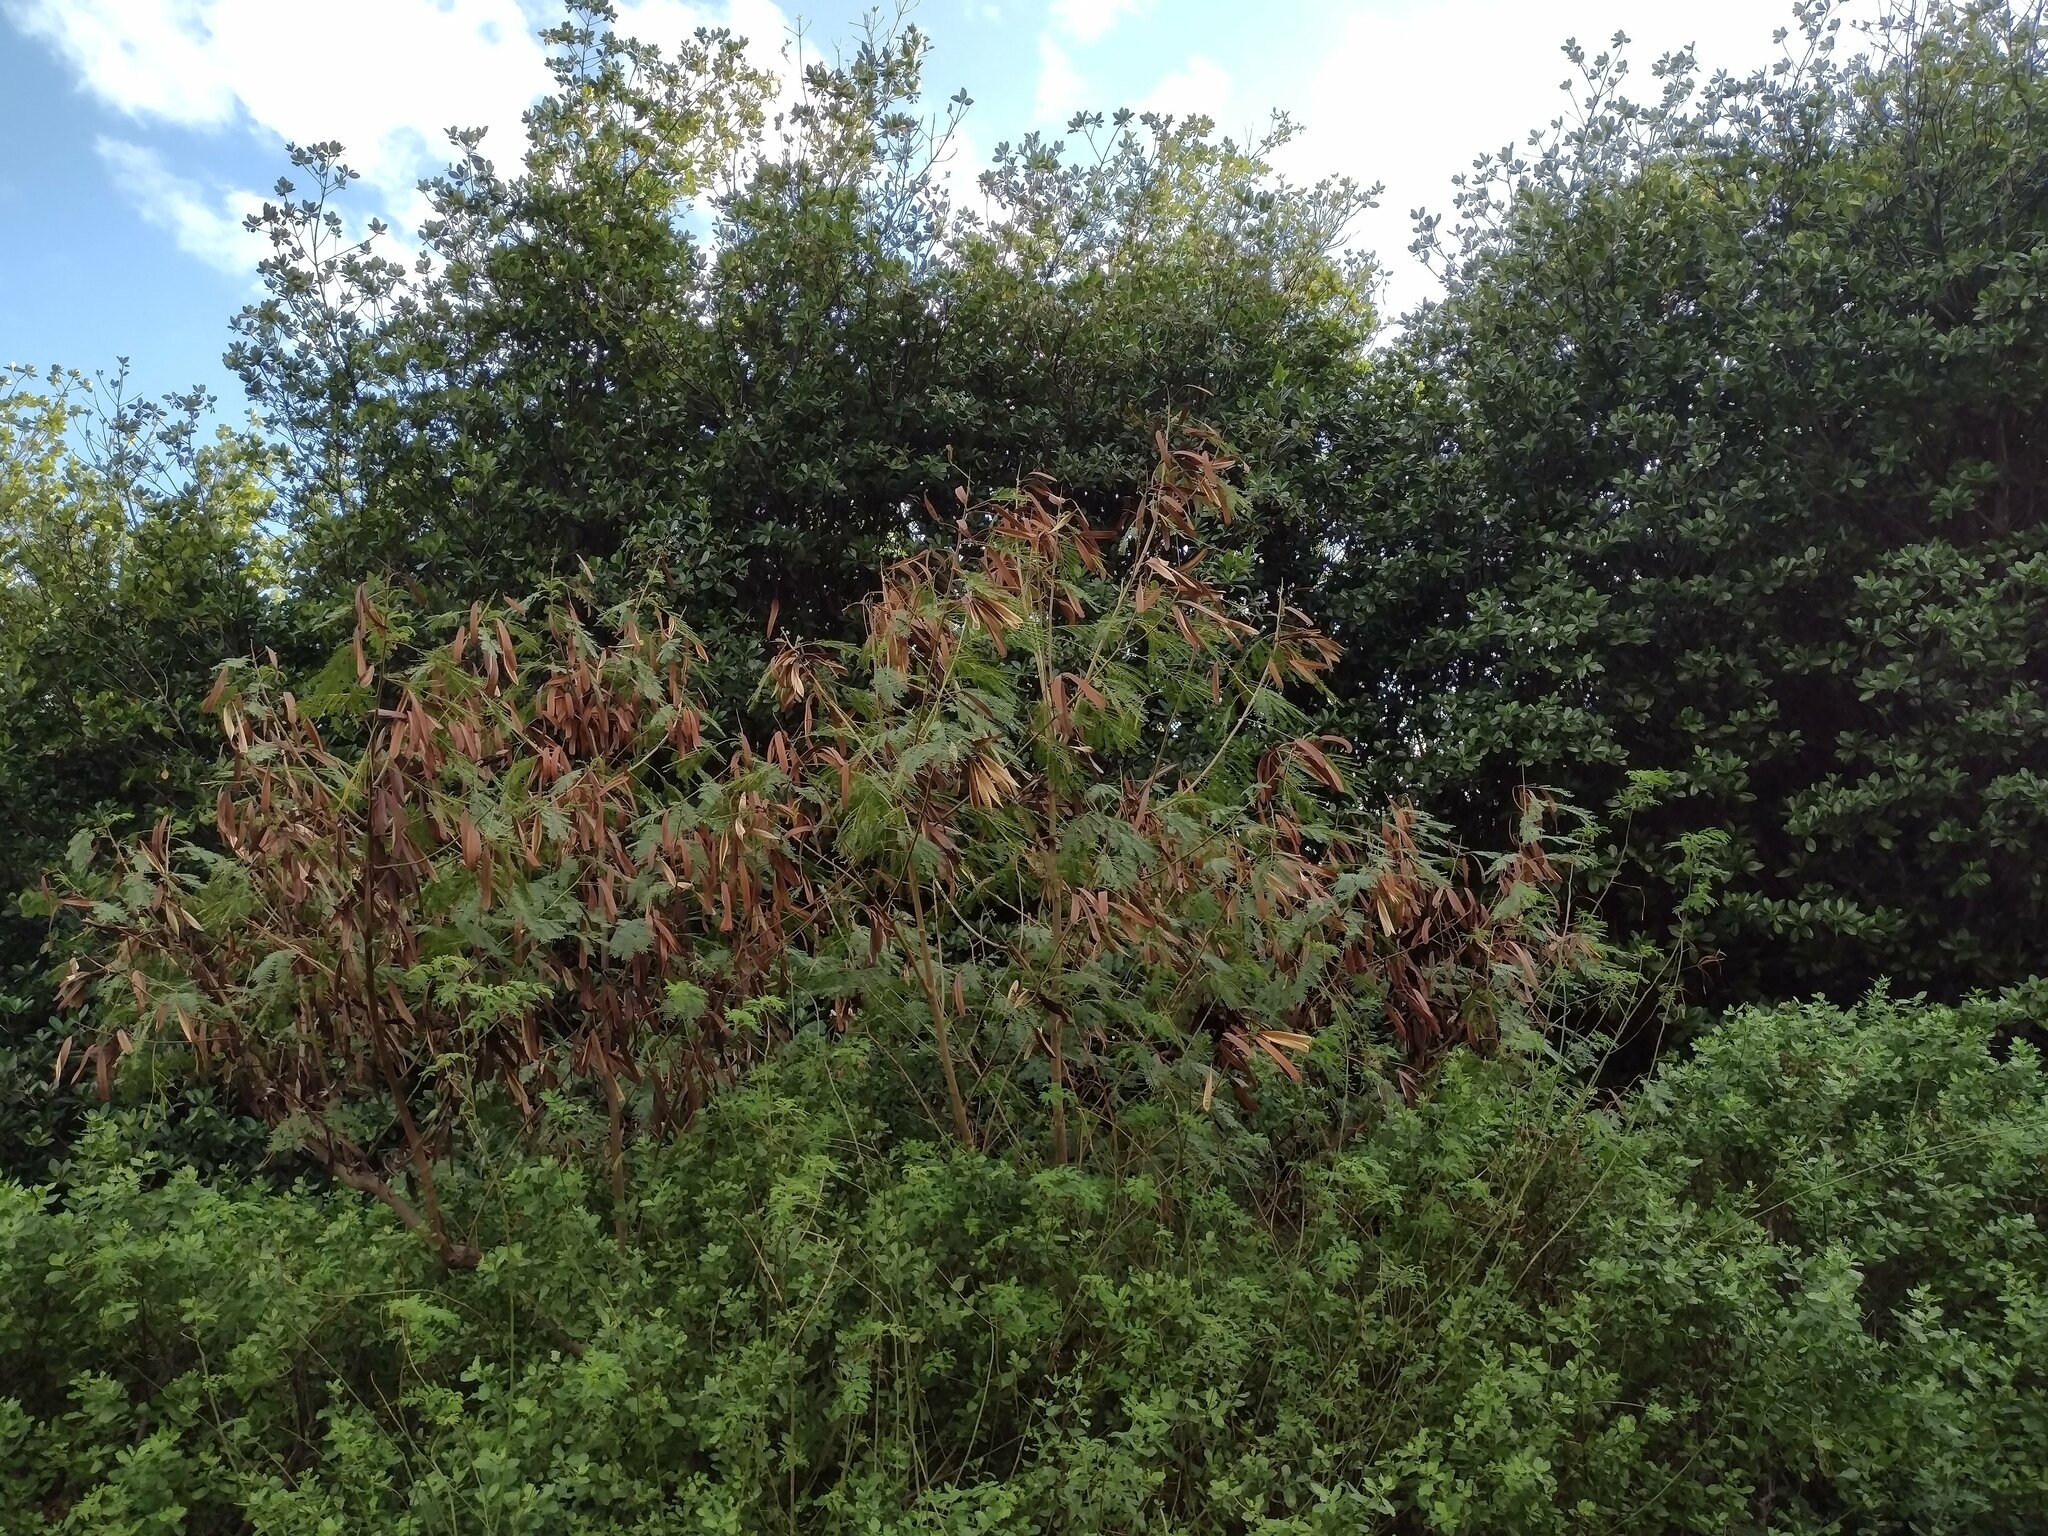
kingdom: Plantae
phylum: Tracheophyta
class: Magnoliopsida
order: Fabales
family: Fabaceae
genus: Leucaena
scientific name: Leucaena leucocephala
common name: White leadtree
